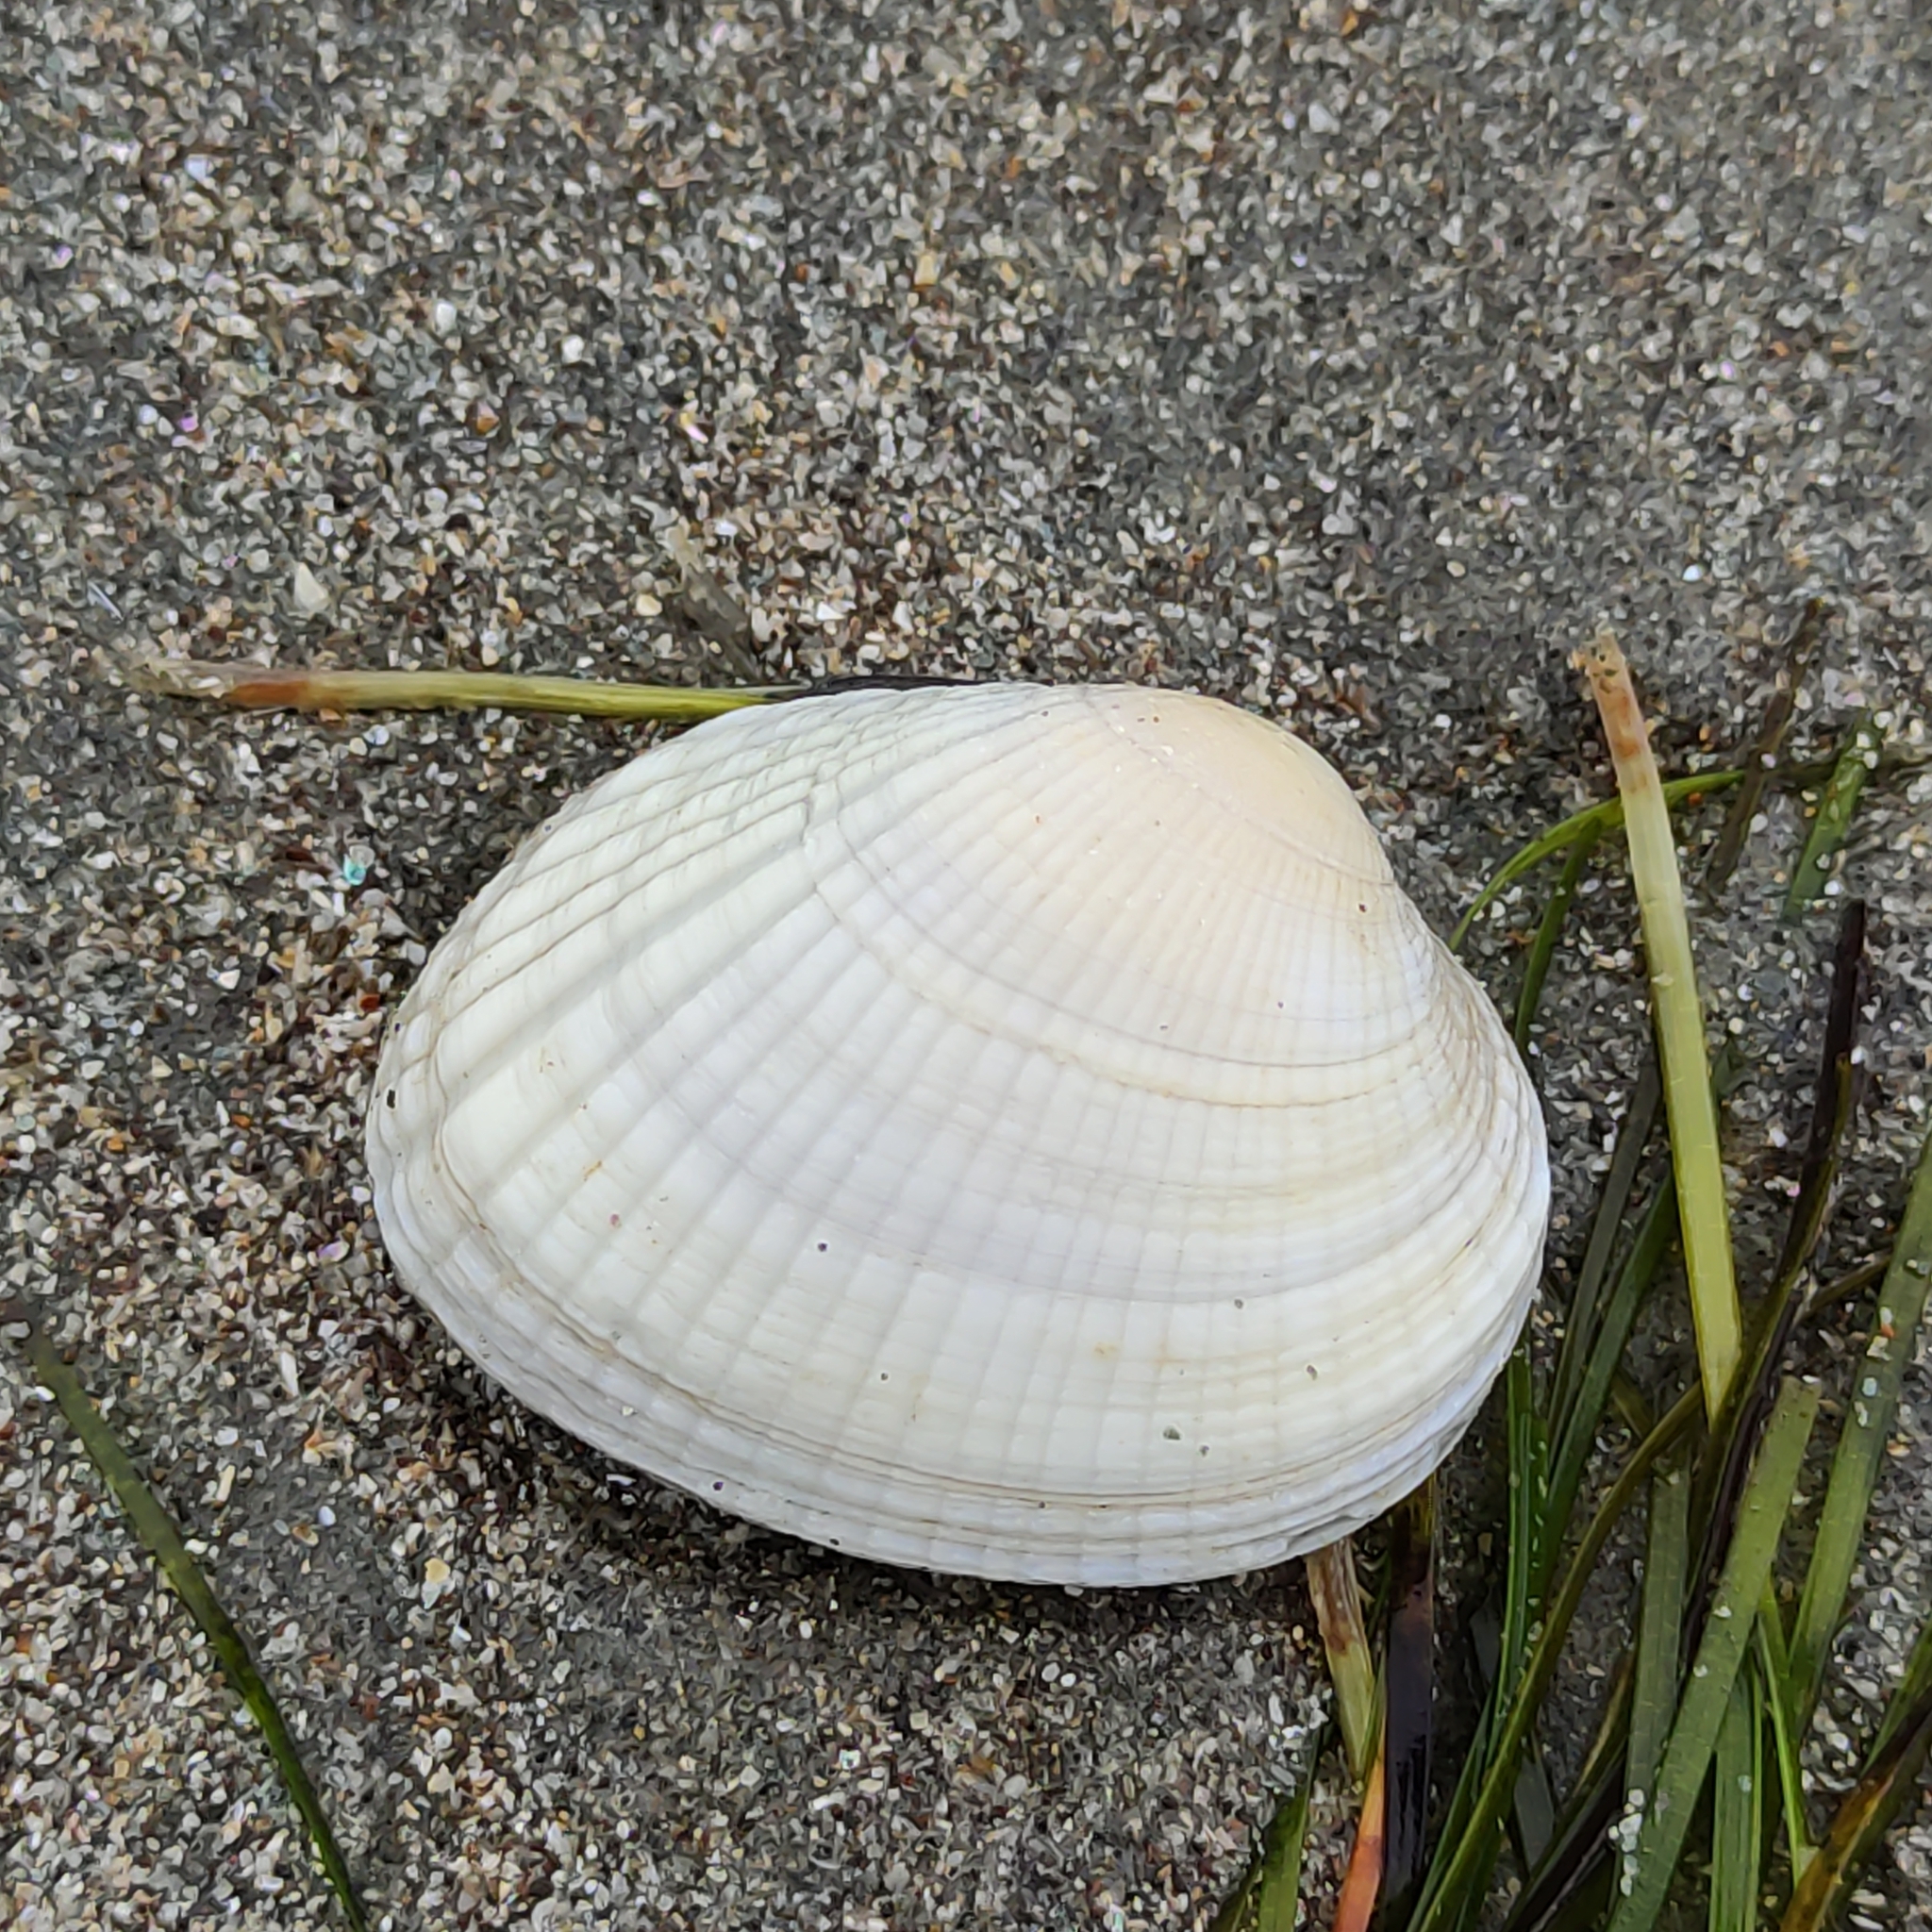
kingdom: Animalia
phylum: Mollusca
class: Bivalvia
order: Venerida
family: Veneridae
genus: Leukoma
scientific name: Leukoma crassicosta
